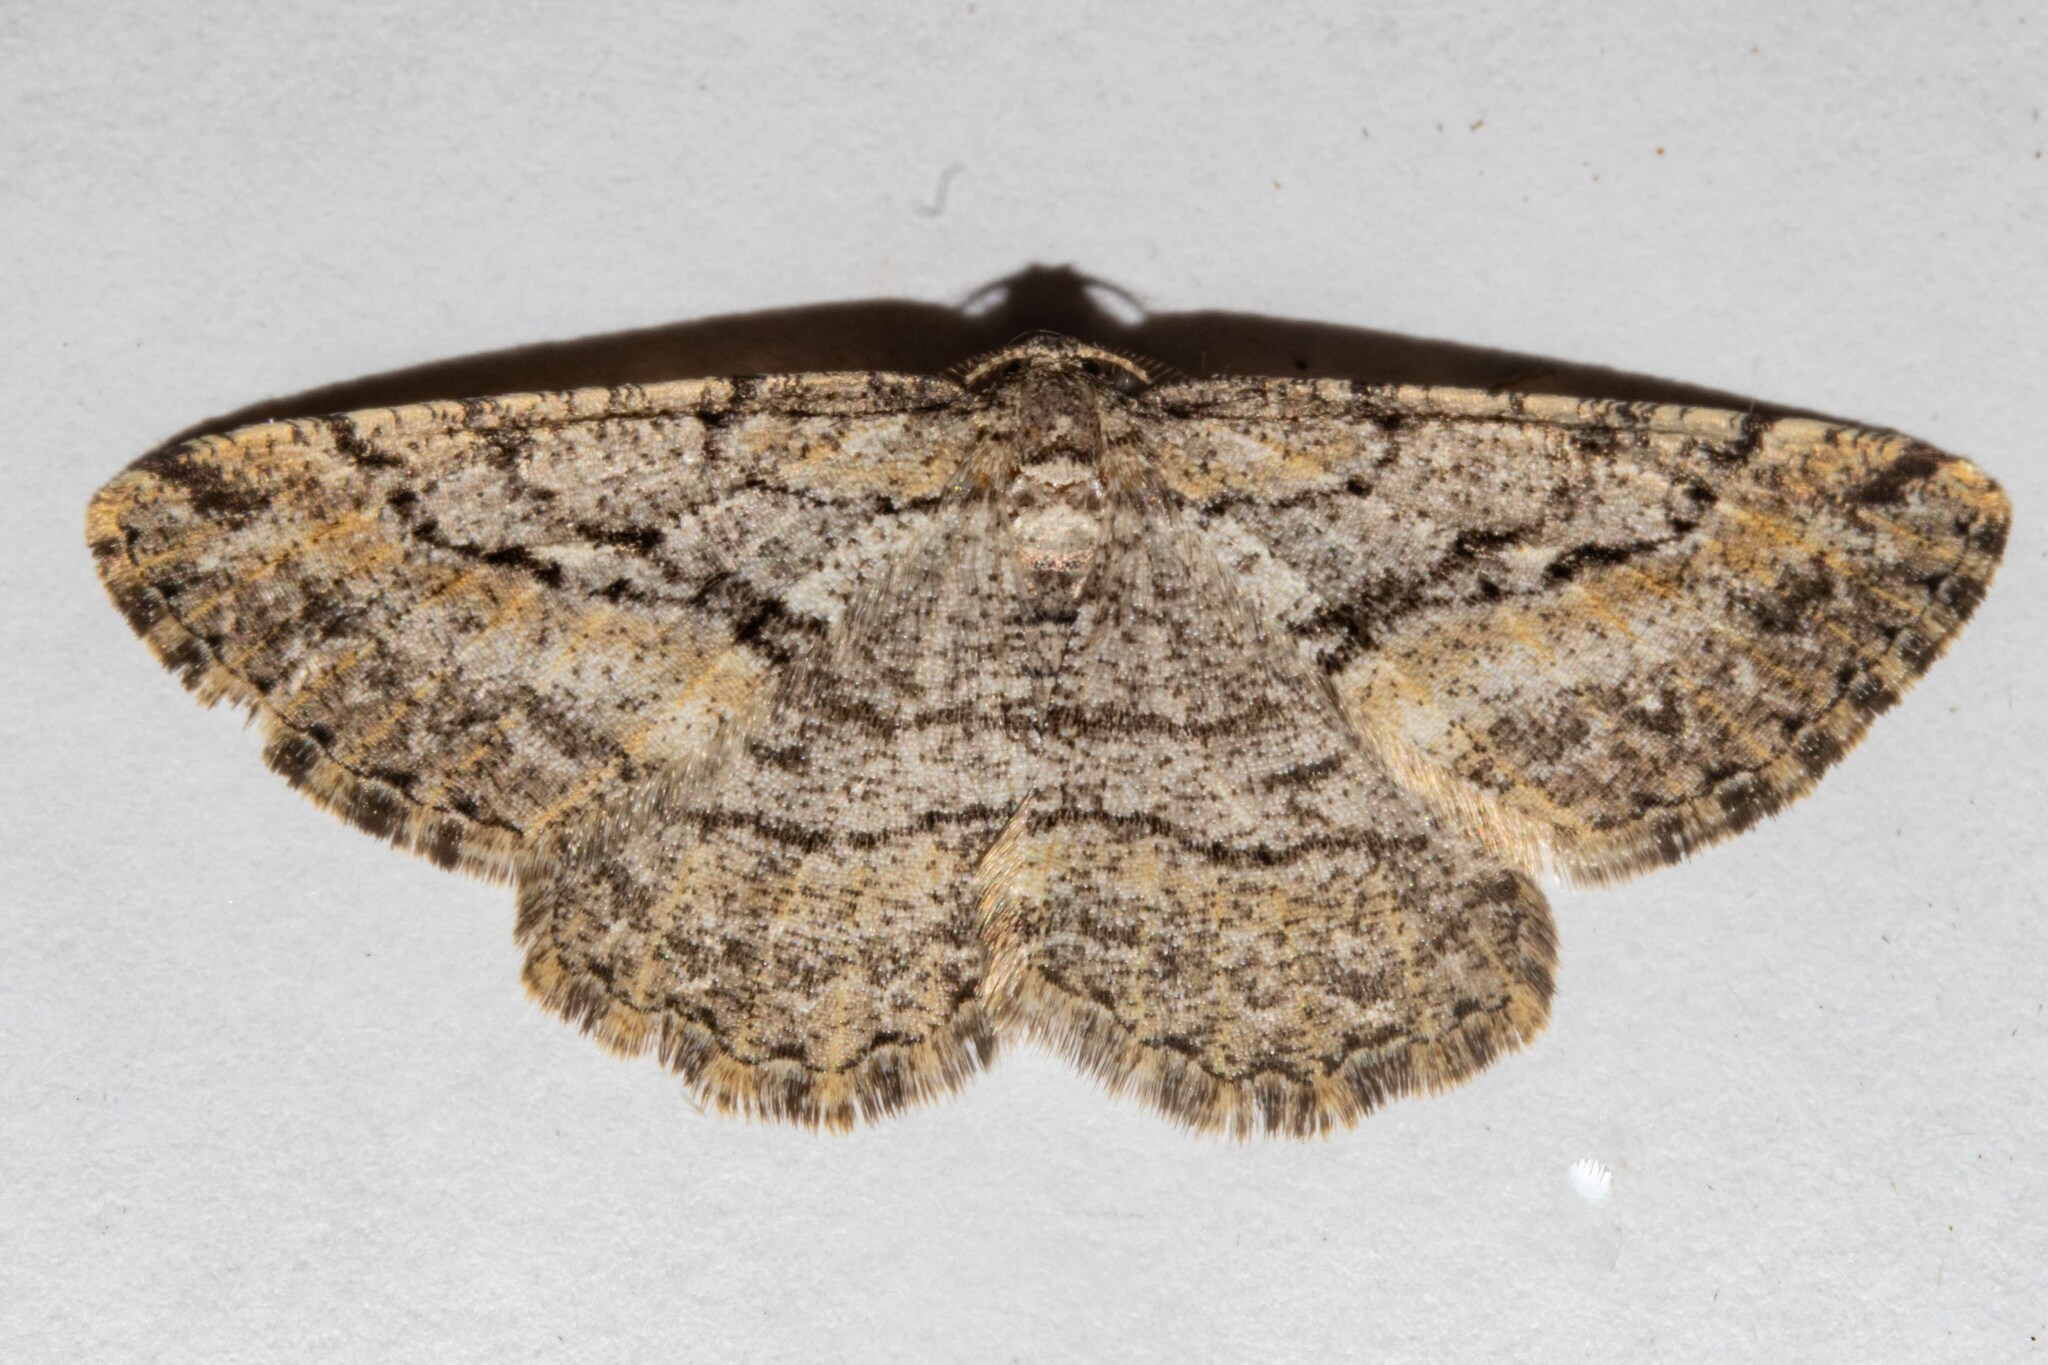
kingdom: Animalia
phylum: Arthropoda
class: Insecta
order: Lepidoptera
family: Geometridae
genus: Zermizinga
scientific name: Zermizinga indocilisaria
